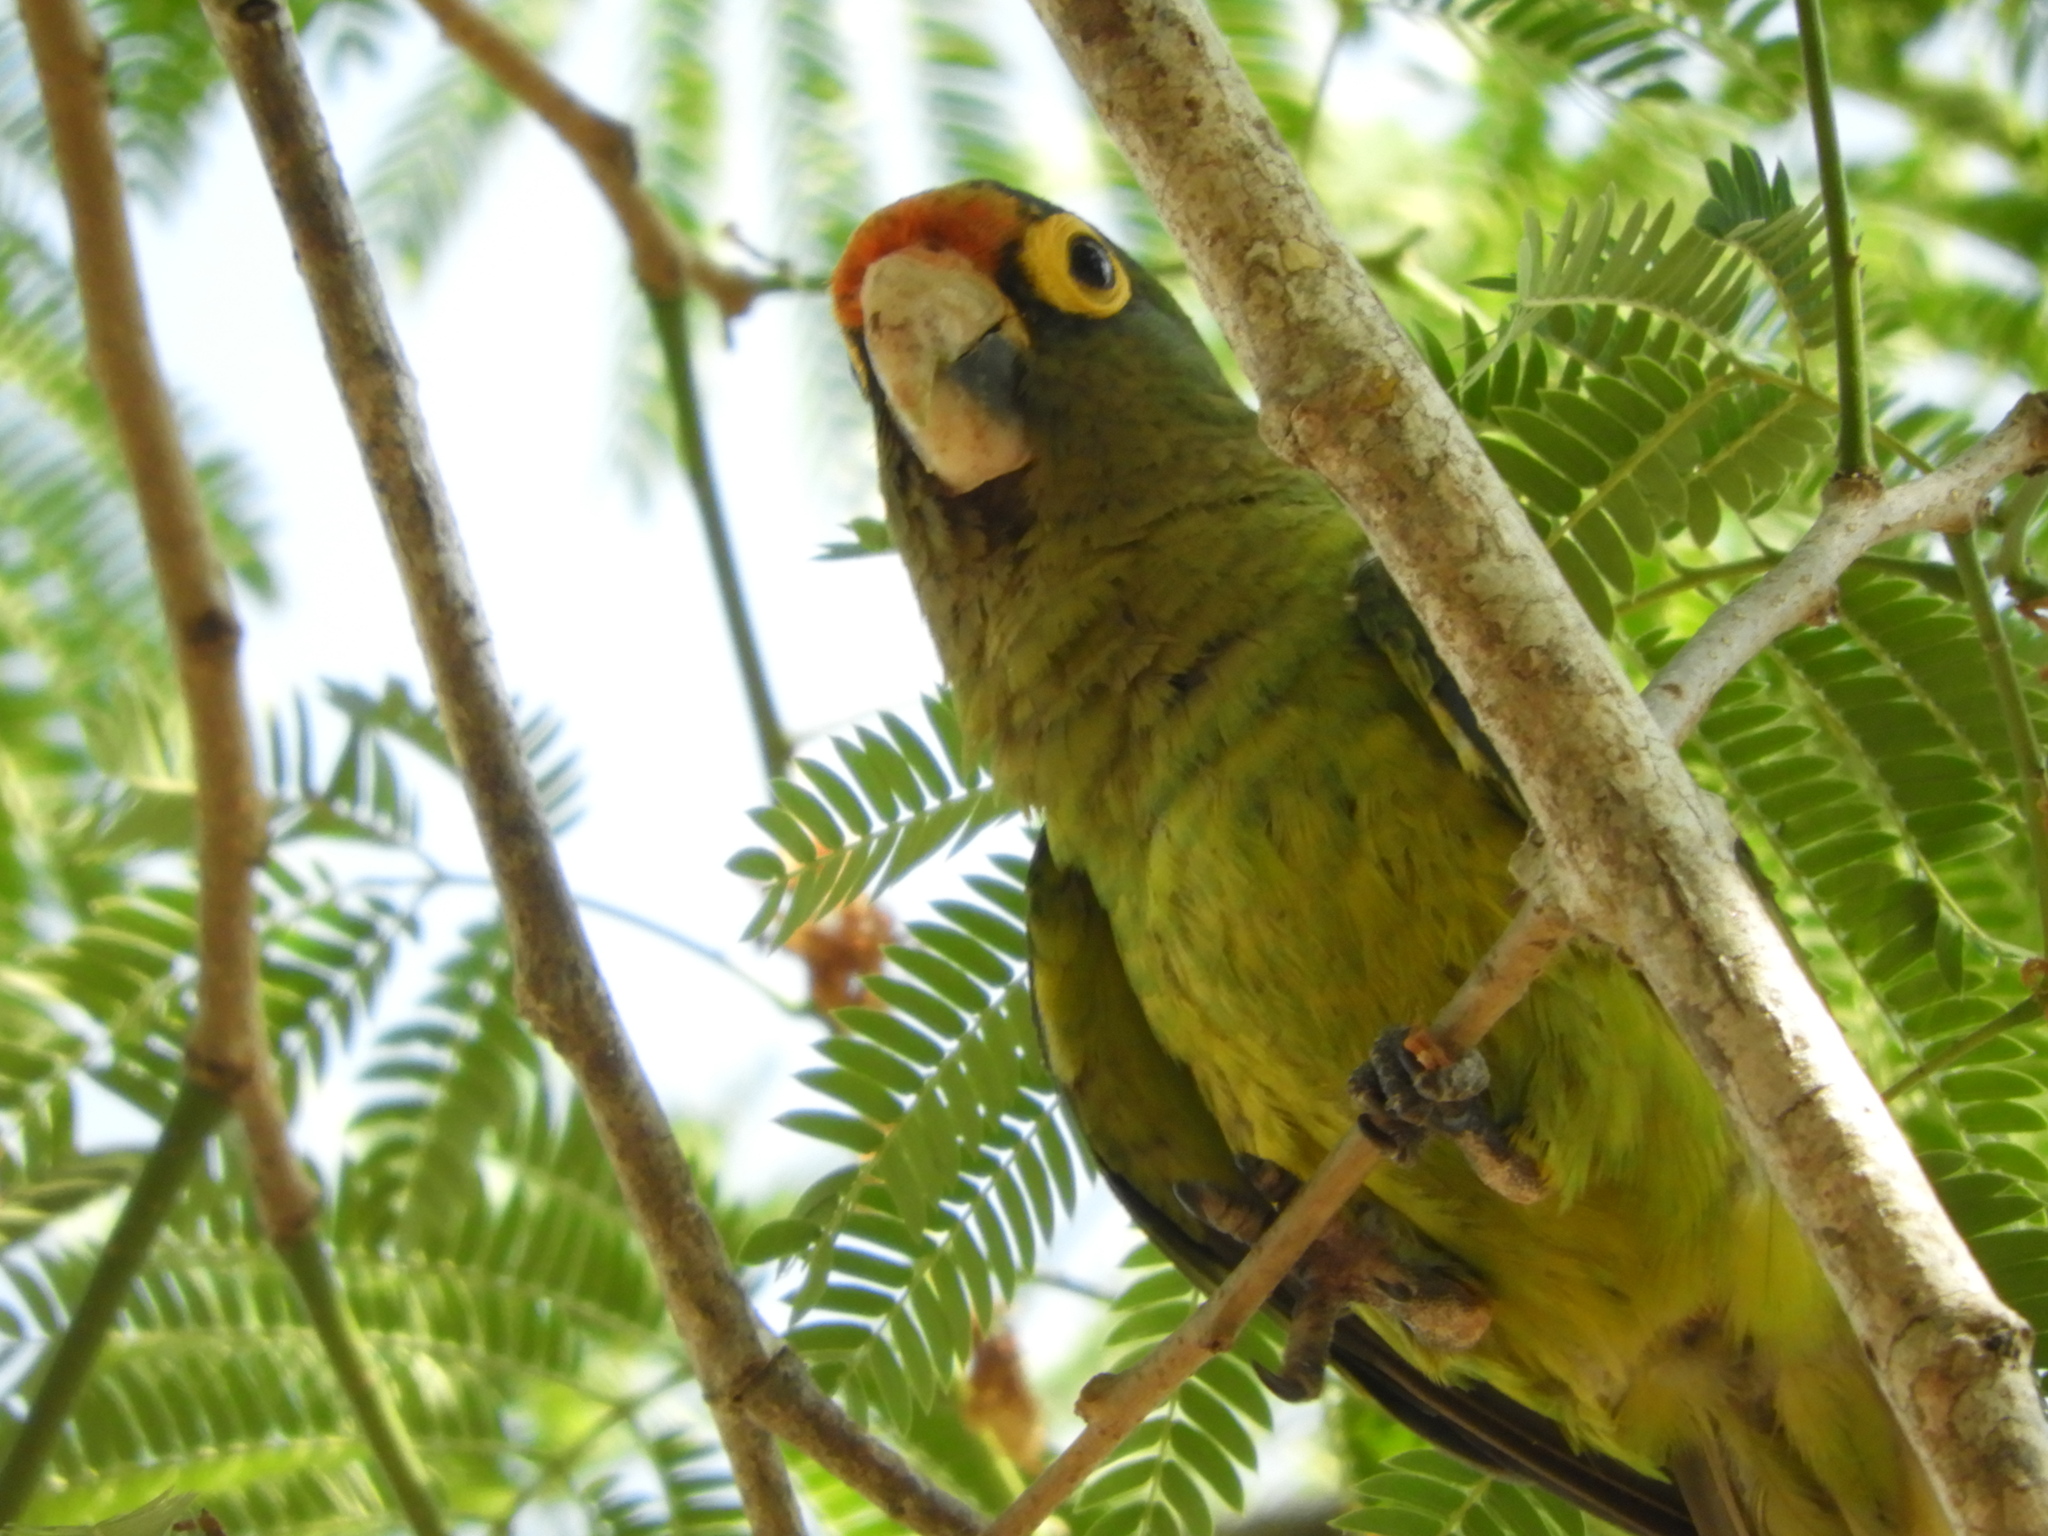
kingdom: Animalia
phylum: Chordata
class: Aves
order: Psittaciformes
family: Psittacidae
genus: Aratinga
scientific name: Aratinga canicularis
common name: Orange-fronted parakeet
